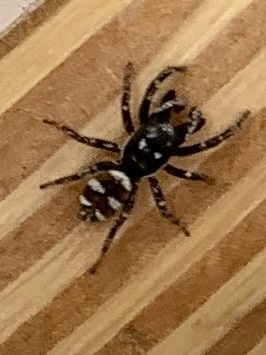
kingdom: Animalia
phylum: Arthropoda
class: Arachnida
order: Araneae
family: Salticidae
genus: Salticus
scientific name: Salticus scenicus
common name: Zebra jumper
